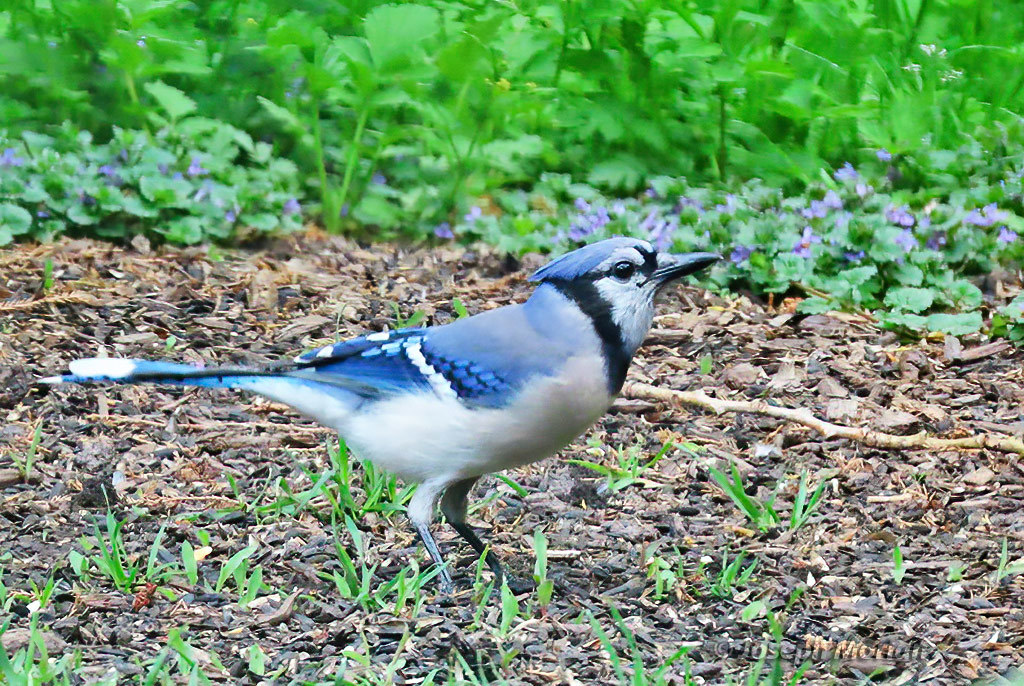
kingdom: Animalia
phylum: Chordata
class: Aves
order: Passeriformes
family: Corvidae
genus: Cyanocitta
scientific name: Cyanocitta cristata
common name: Blue jay
